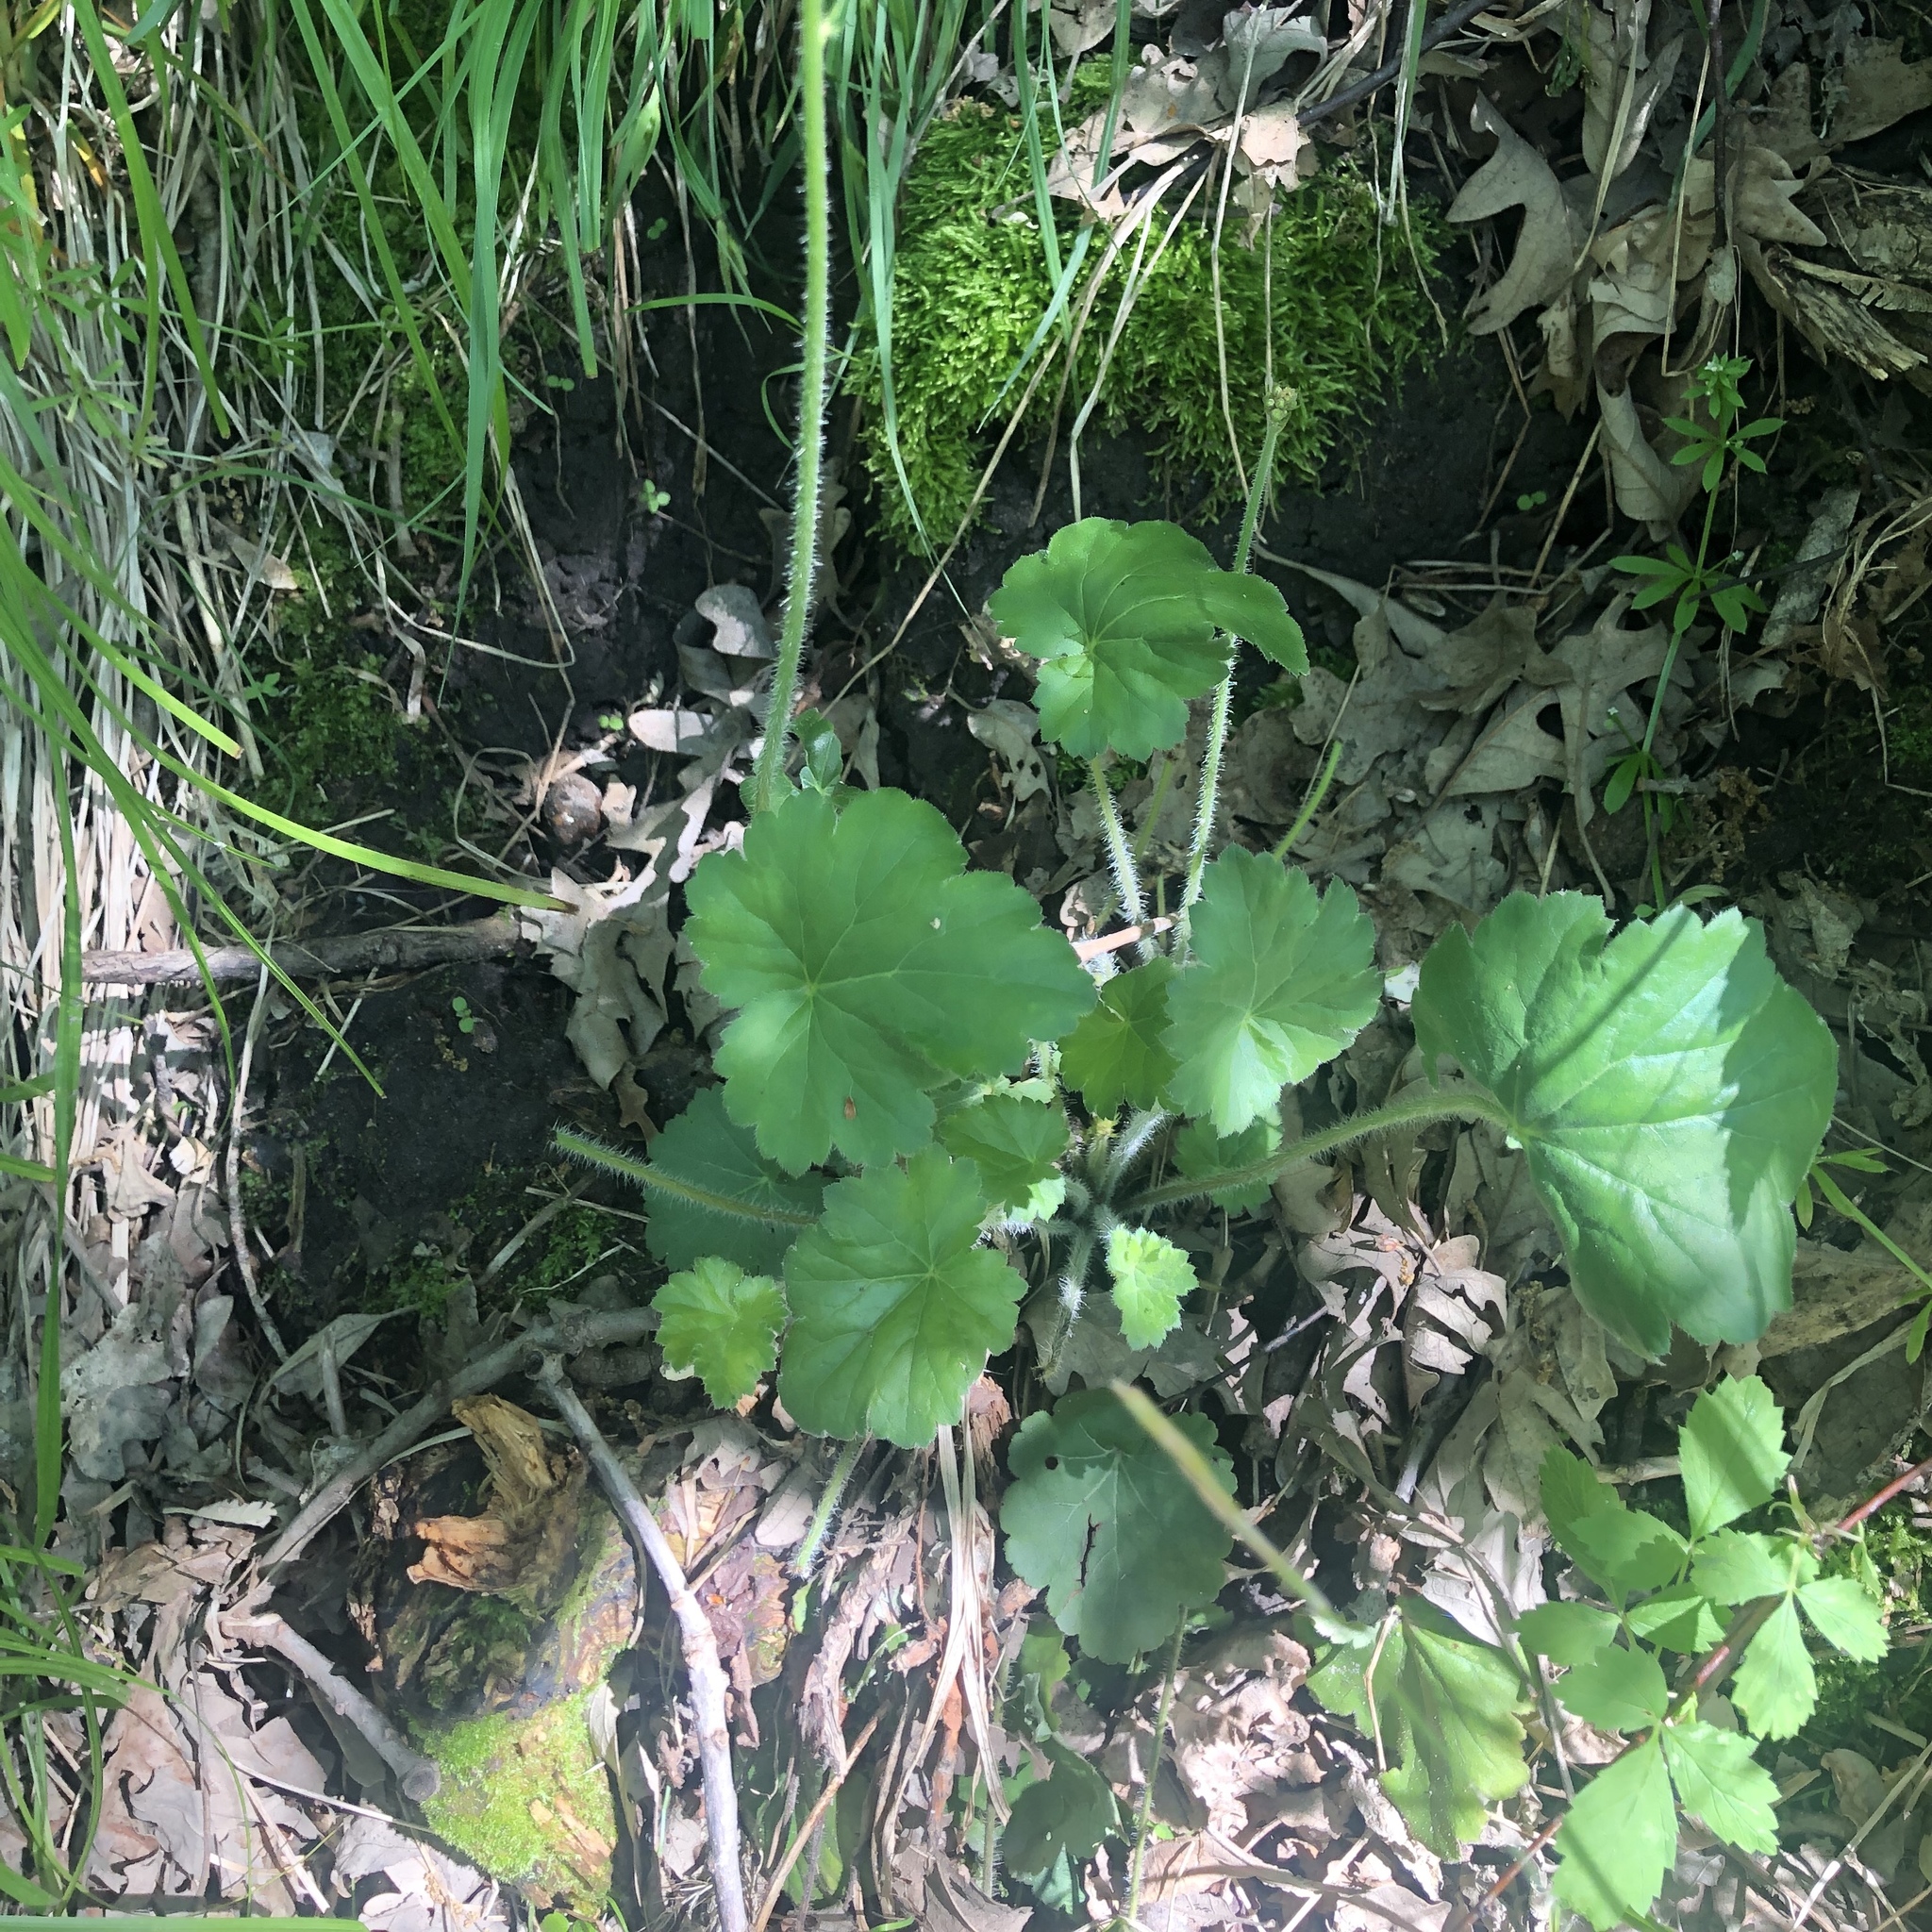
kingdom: Plantae
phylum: Tracheophyta
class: Magnoliopsida
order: Saxifragales
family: Saxifragaceae
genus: Heuchera
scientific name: Heuchera richardsonii
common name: Richardson's alumroot
